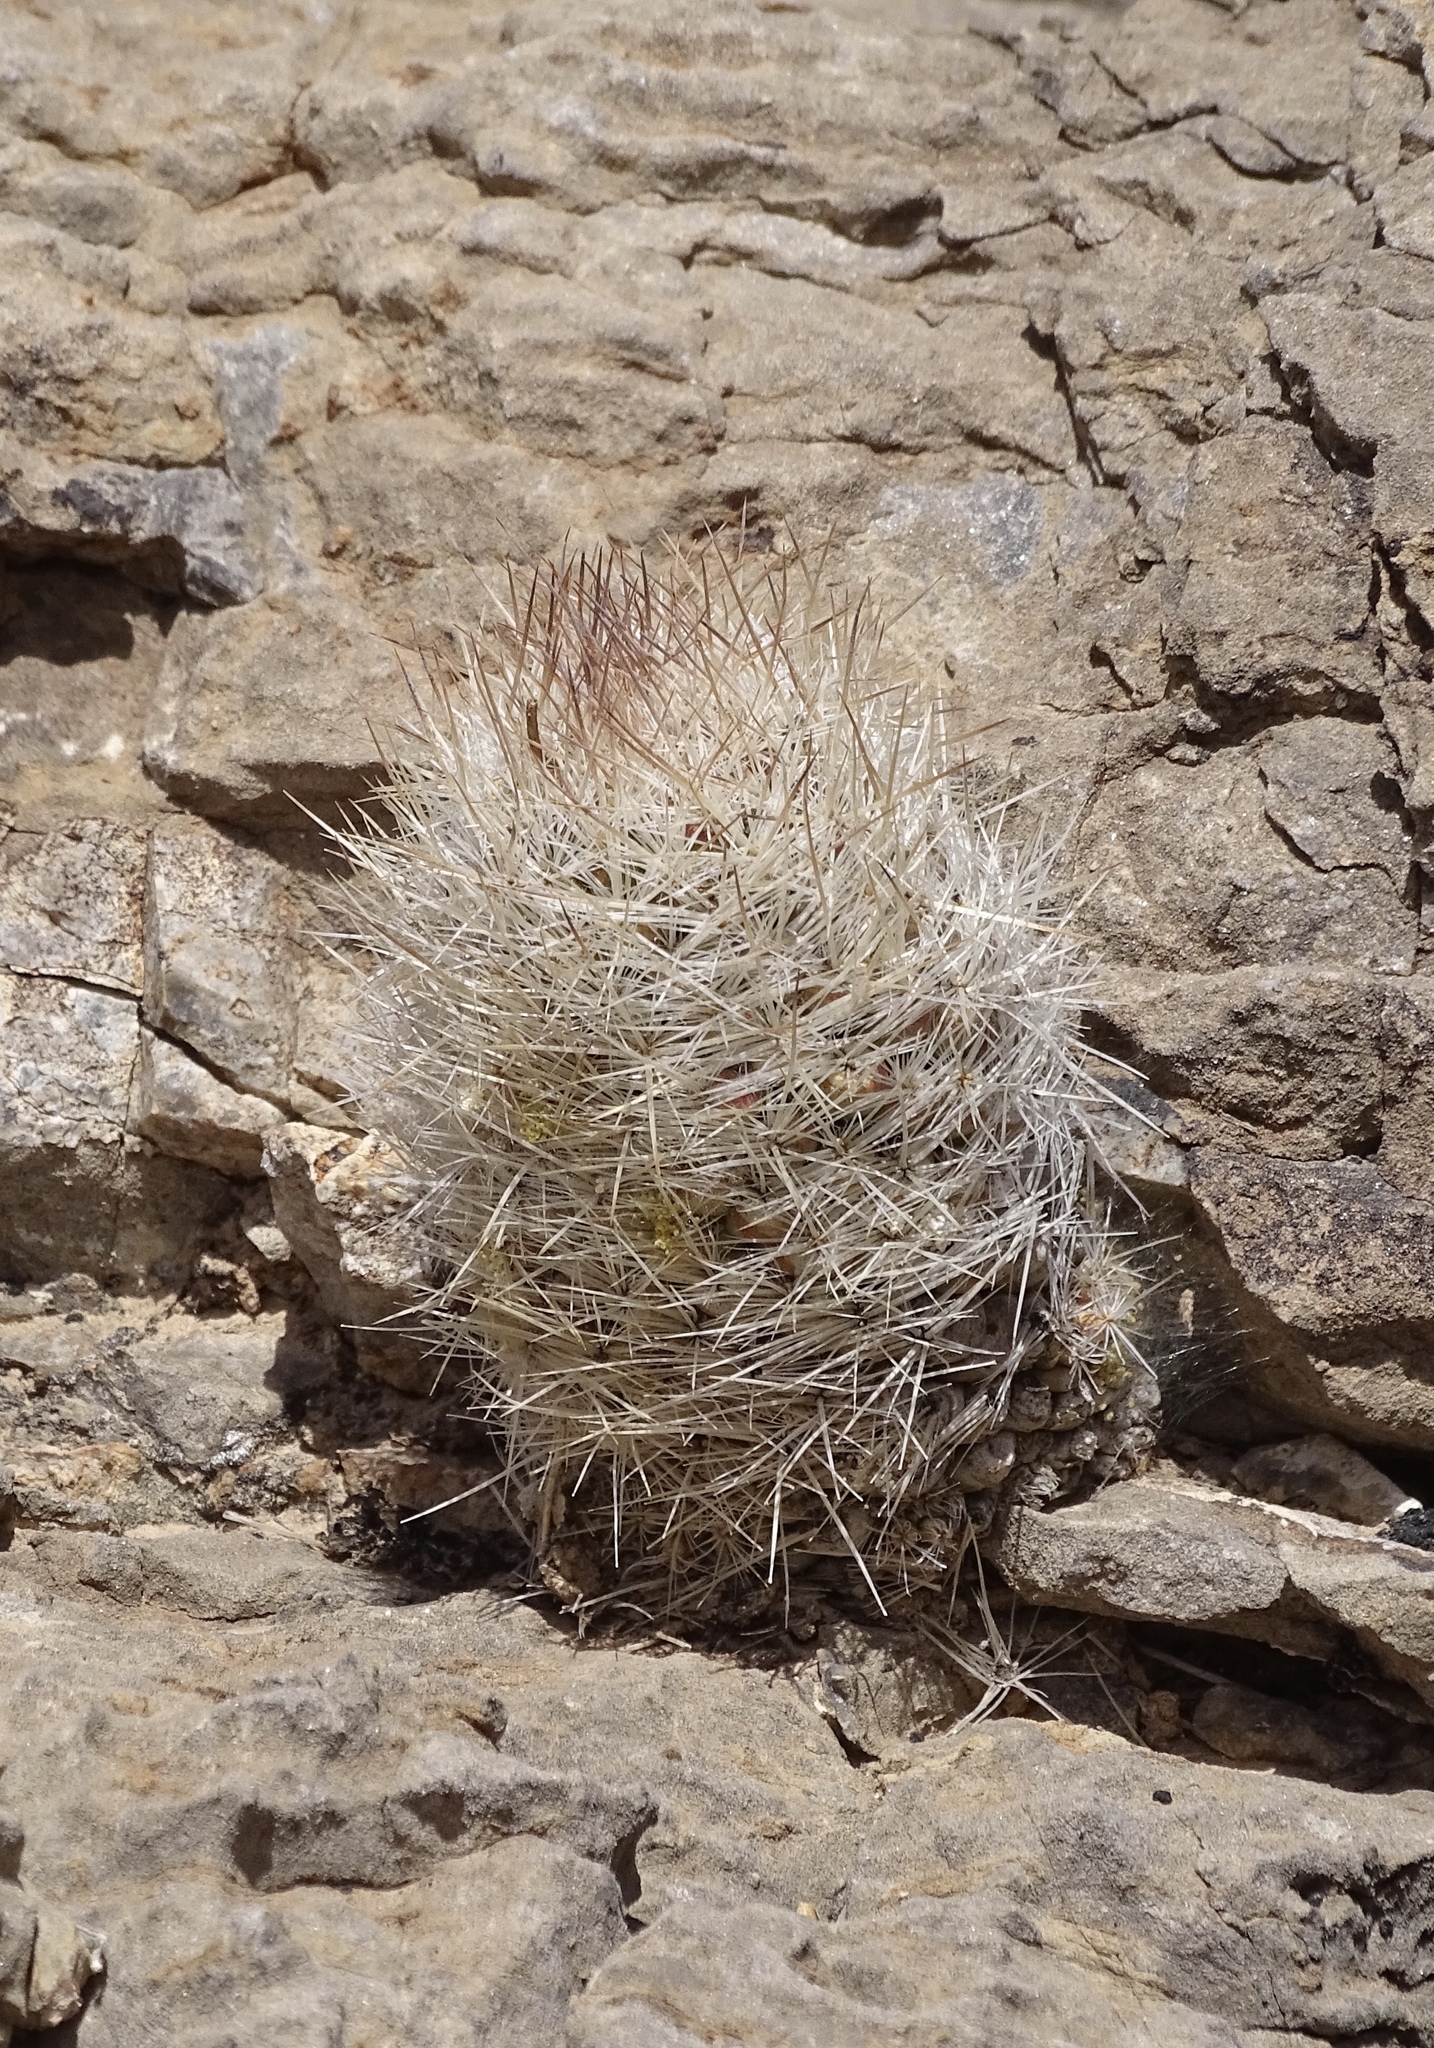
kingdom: Plantae
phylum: Tracheophyta
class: Magnoliopsida
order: Caryophyllales
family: Cactaceae
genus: Pelecyphora
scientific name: Pelecyphora tuberculosa
